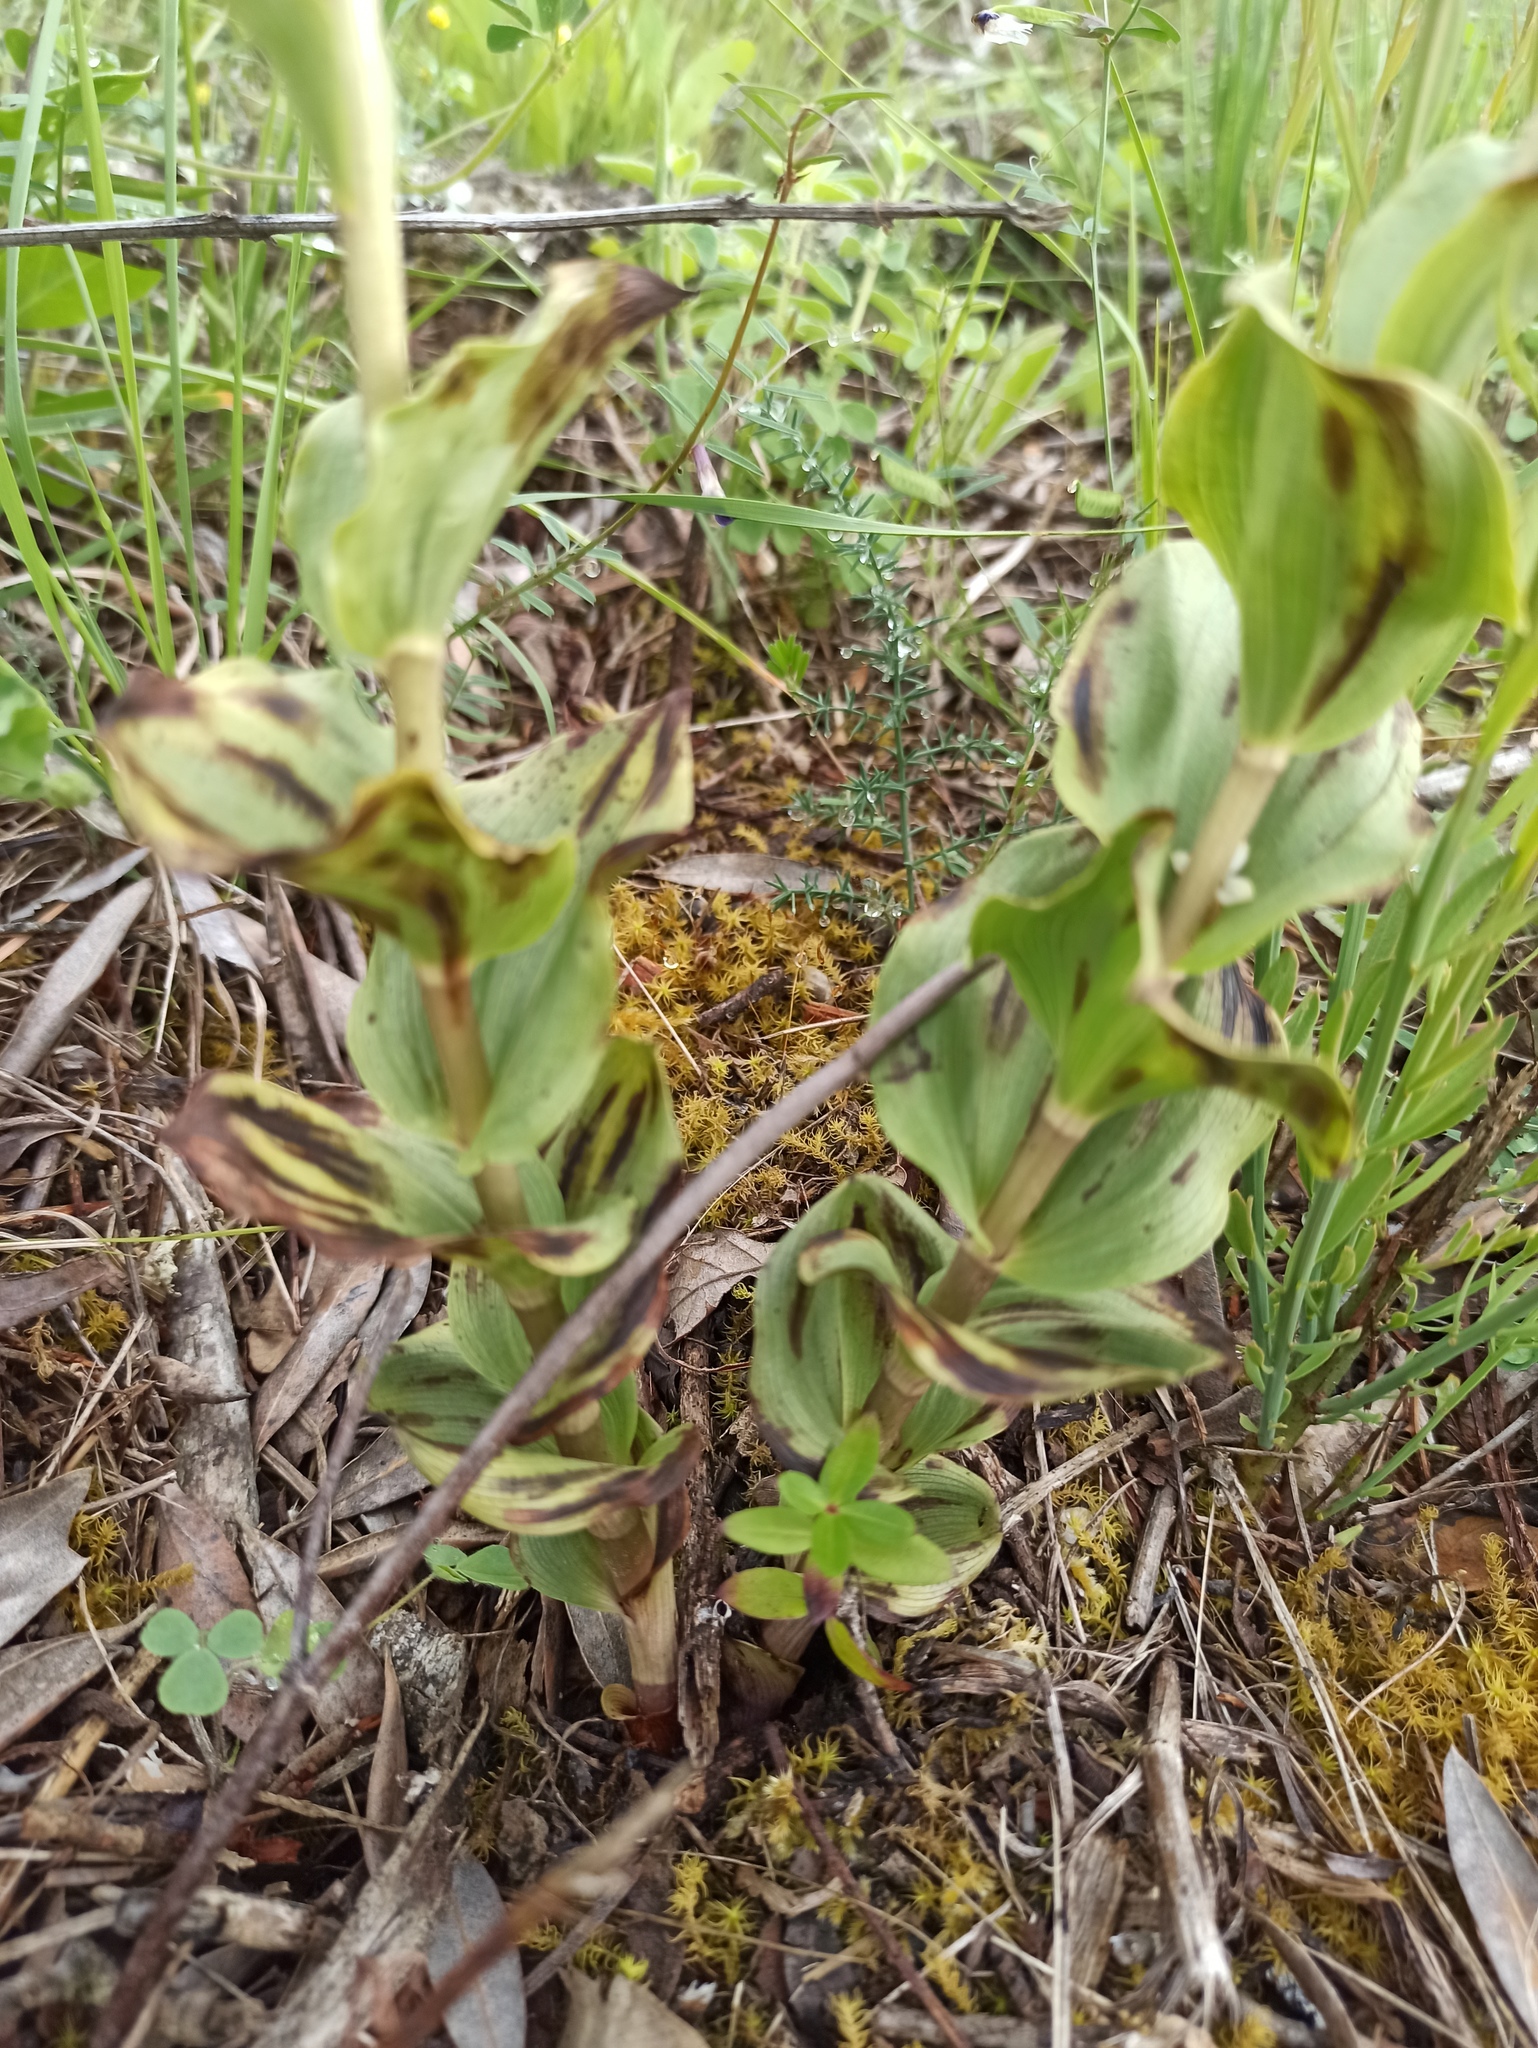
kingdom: Plantae
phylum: Tracheophyta
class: Liliopsida
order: Asparagales
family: Orchidaceae
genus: Epipactis
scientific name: Epipactis helleborine
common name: Broad-leaved helleborine
